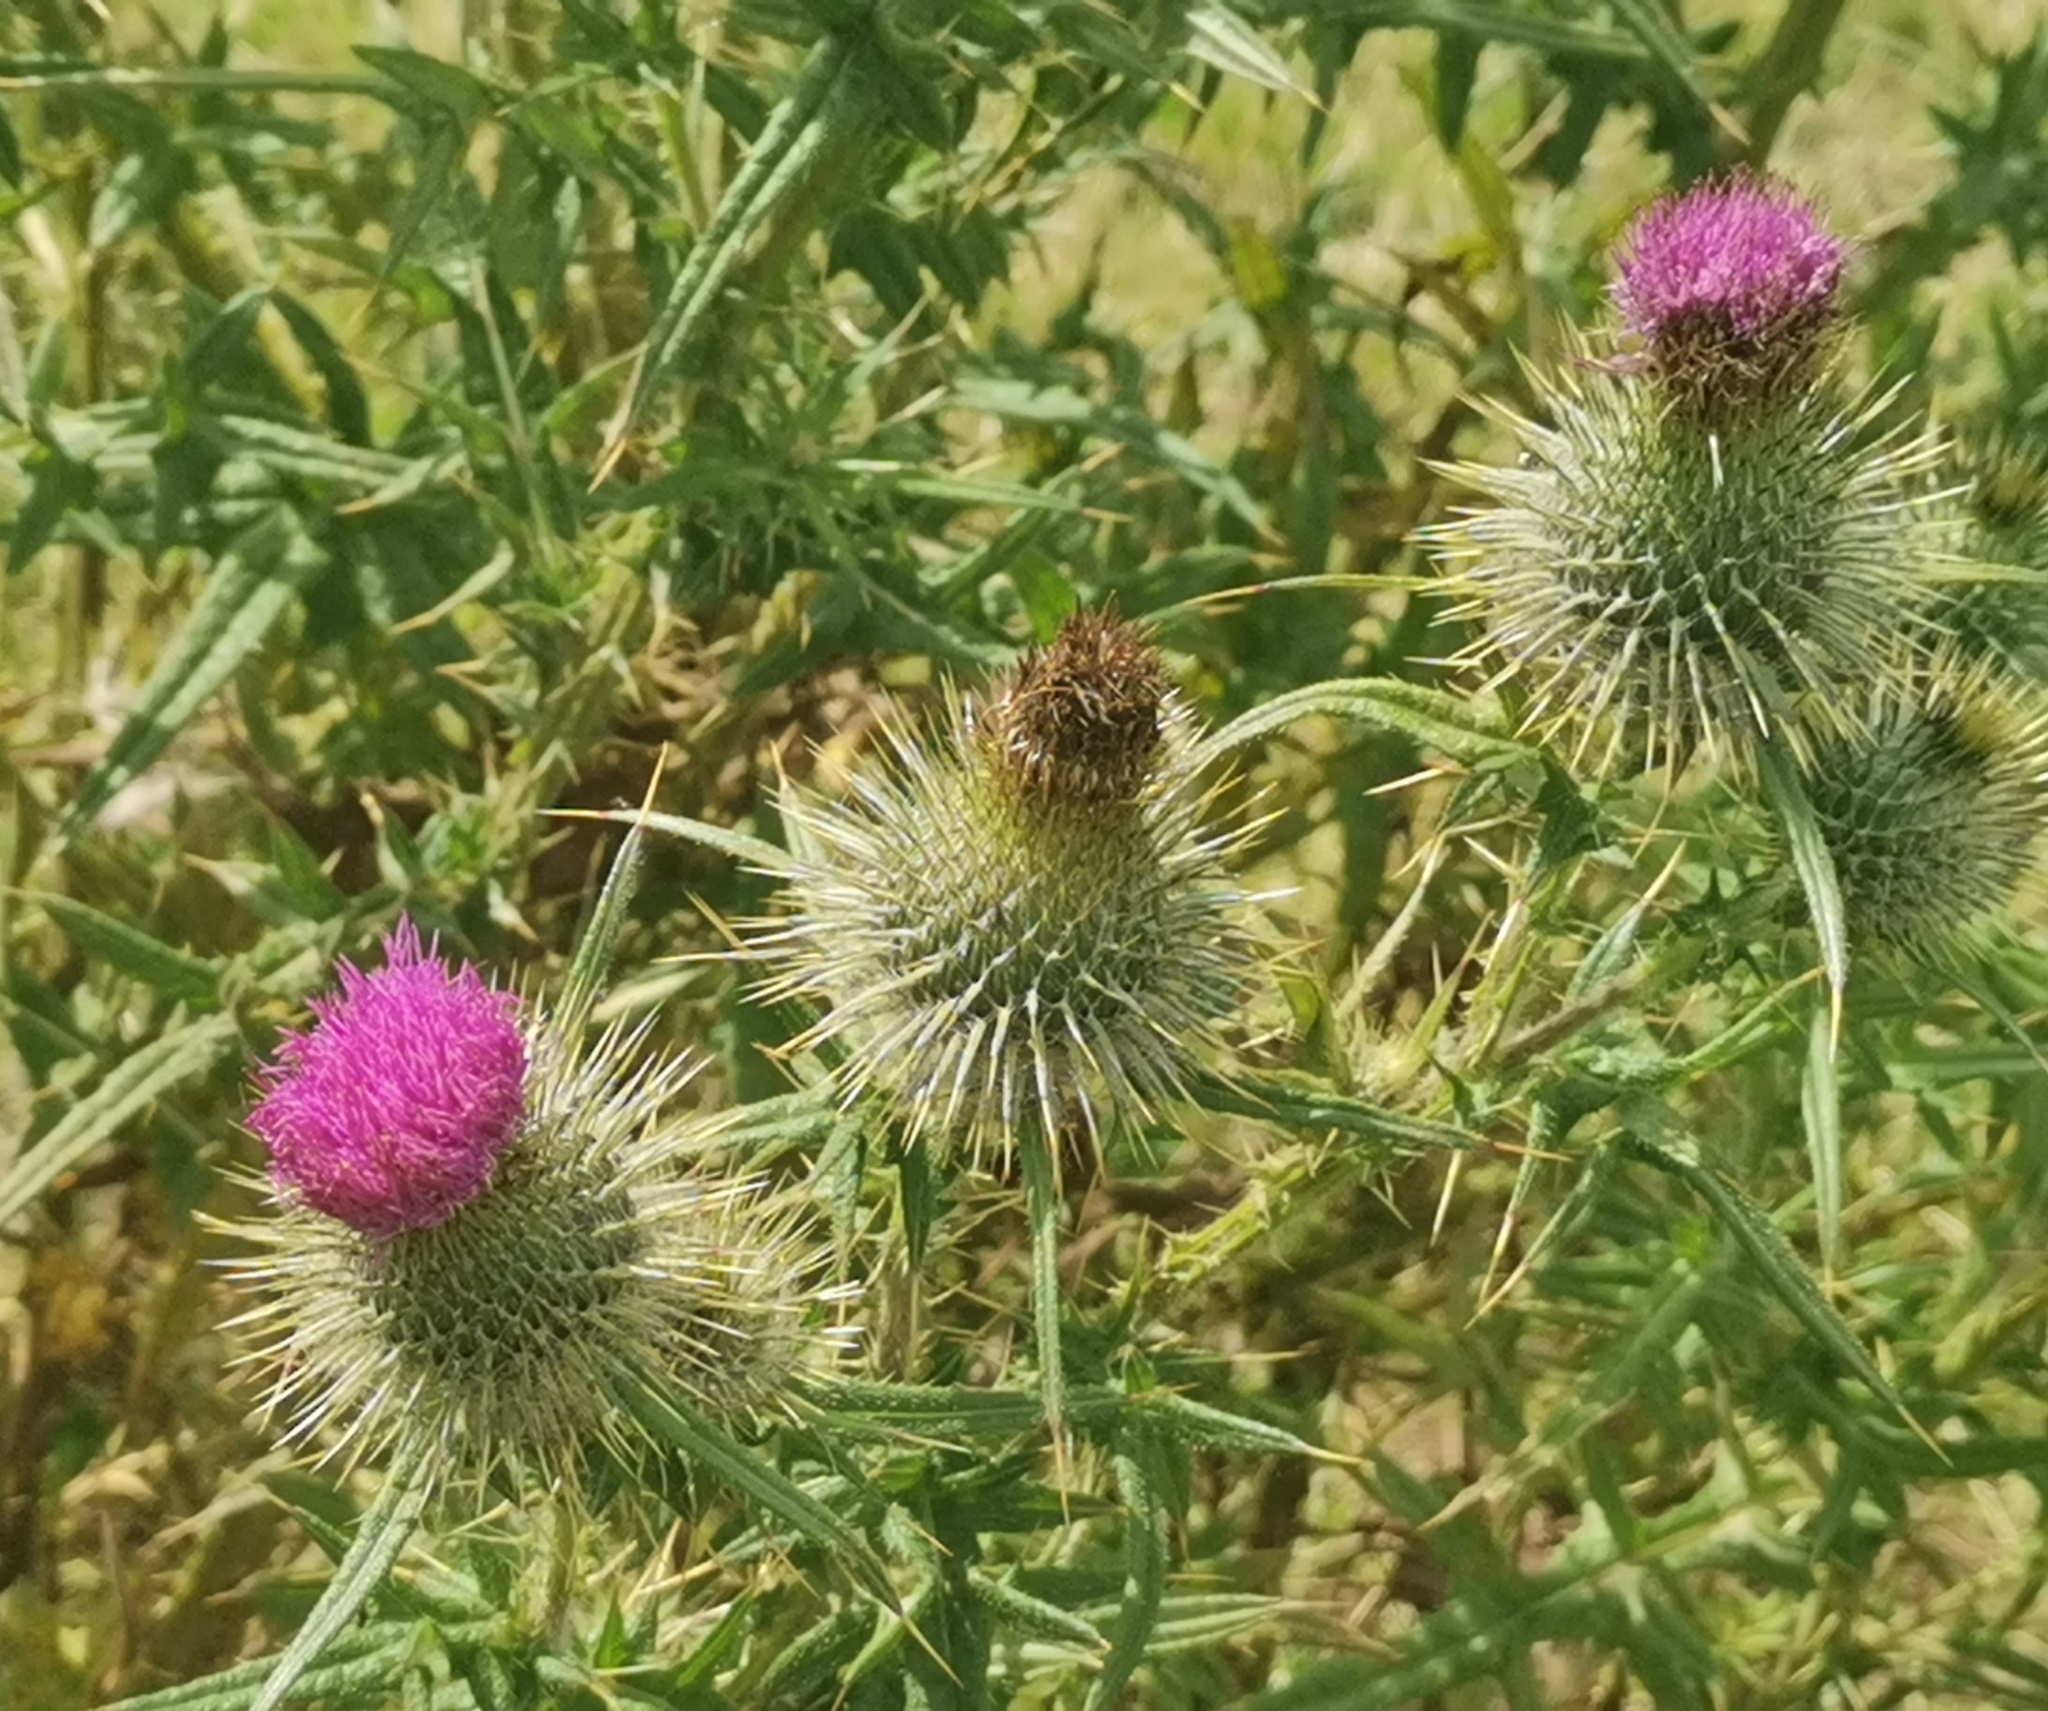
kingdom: Plantae
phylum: Tracheophyta
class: Magnoliopsida
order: Asterales
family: Asteraceae
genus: Cirsium
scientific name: Cirsium vulgare
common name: Bull thistle
